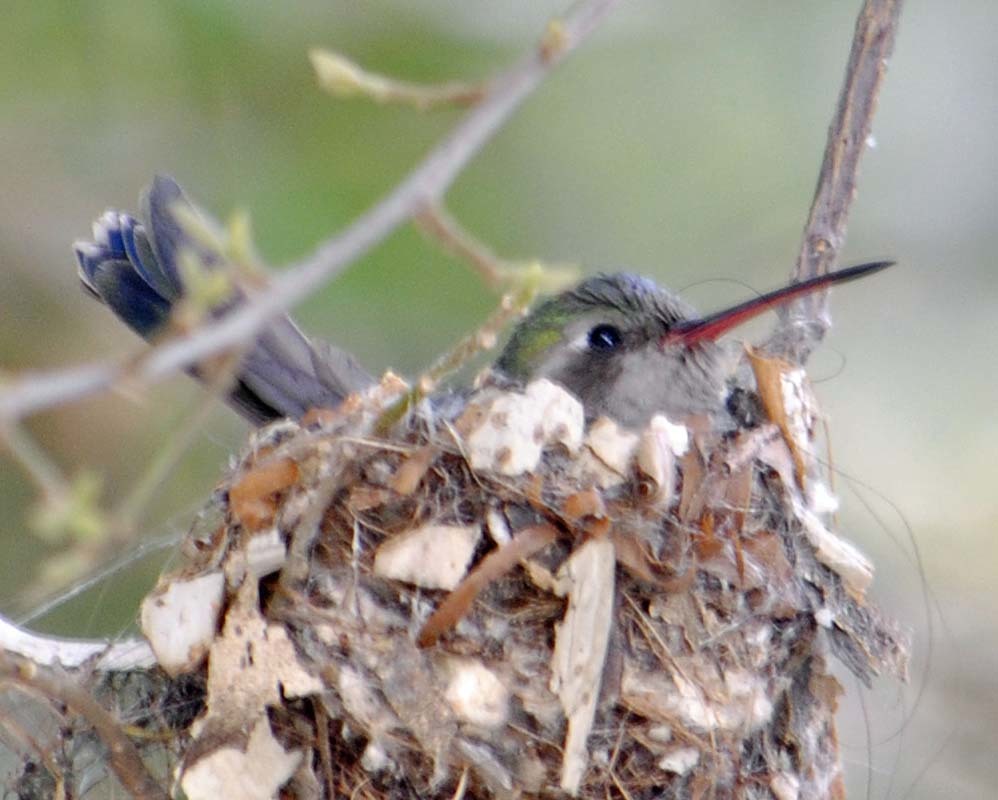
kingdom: Animalia
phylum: Chordata
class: Aves
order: Apodiformes
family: Trochilidae
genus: Cynanthus
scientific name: Cynanthus latirostris
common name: Broad-billed hummingbird
